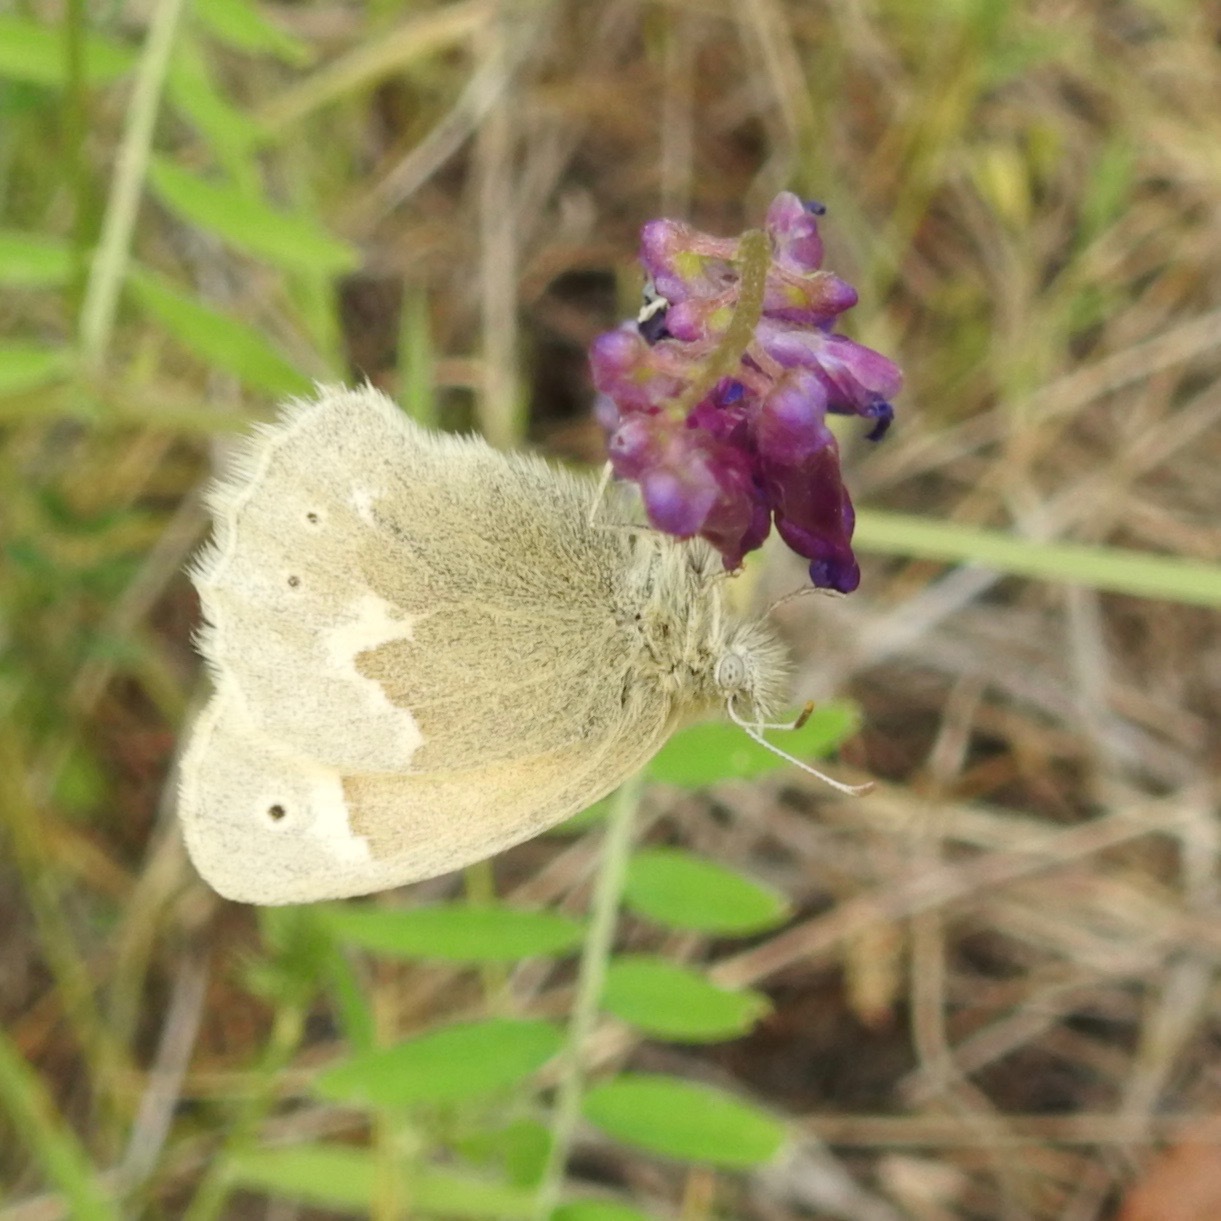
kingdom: Animalia
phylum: Arthropoda
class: Insecta
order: Lepidoptera
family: Nymphalidae
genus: Coenonympha
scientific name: Coenonympha california
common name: Common ringlet
